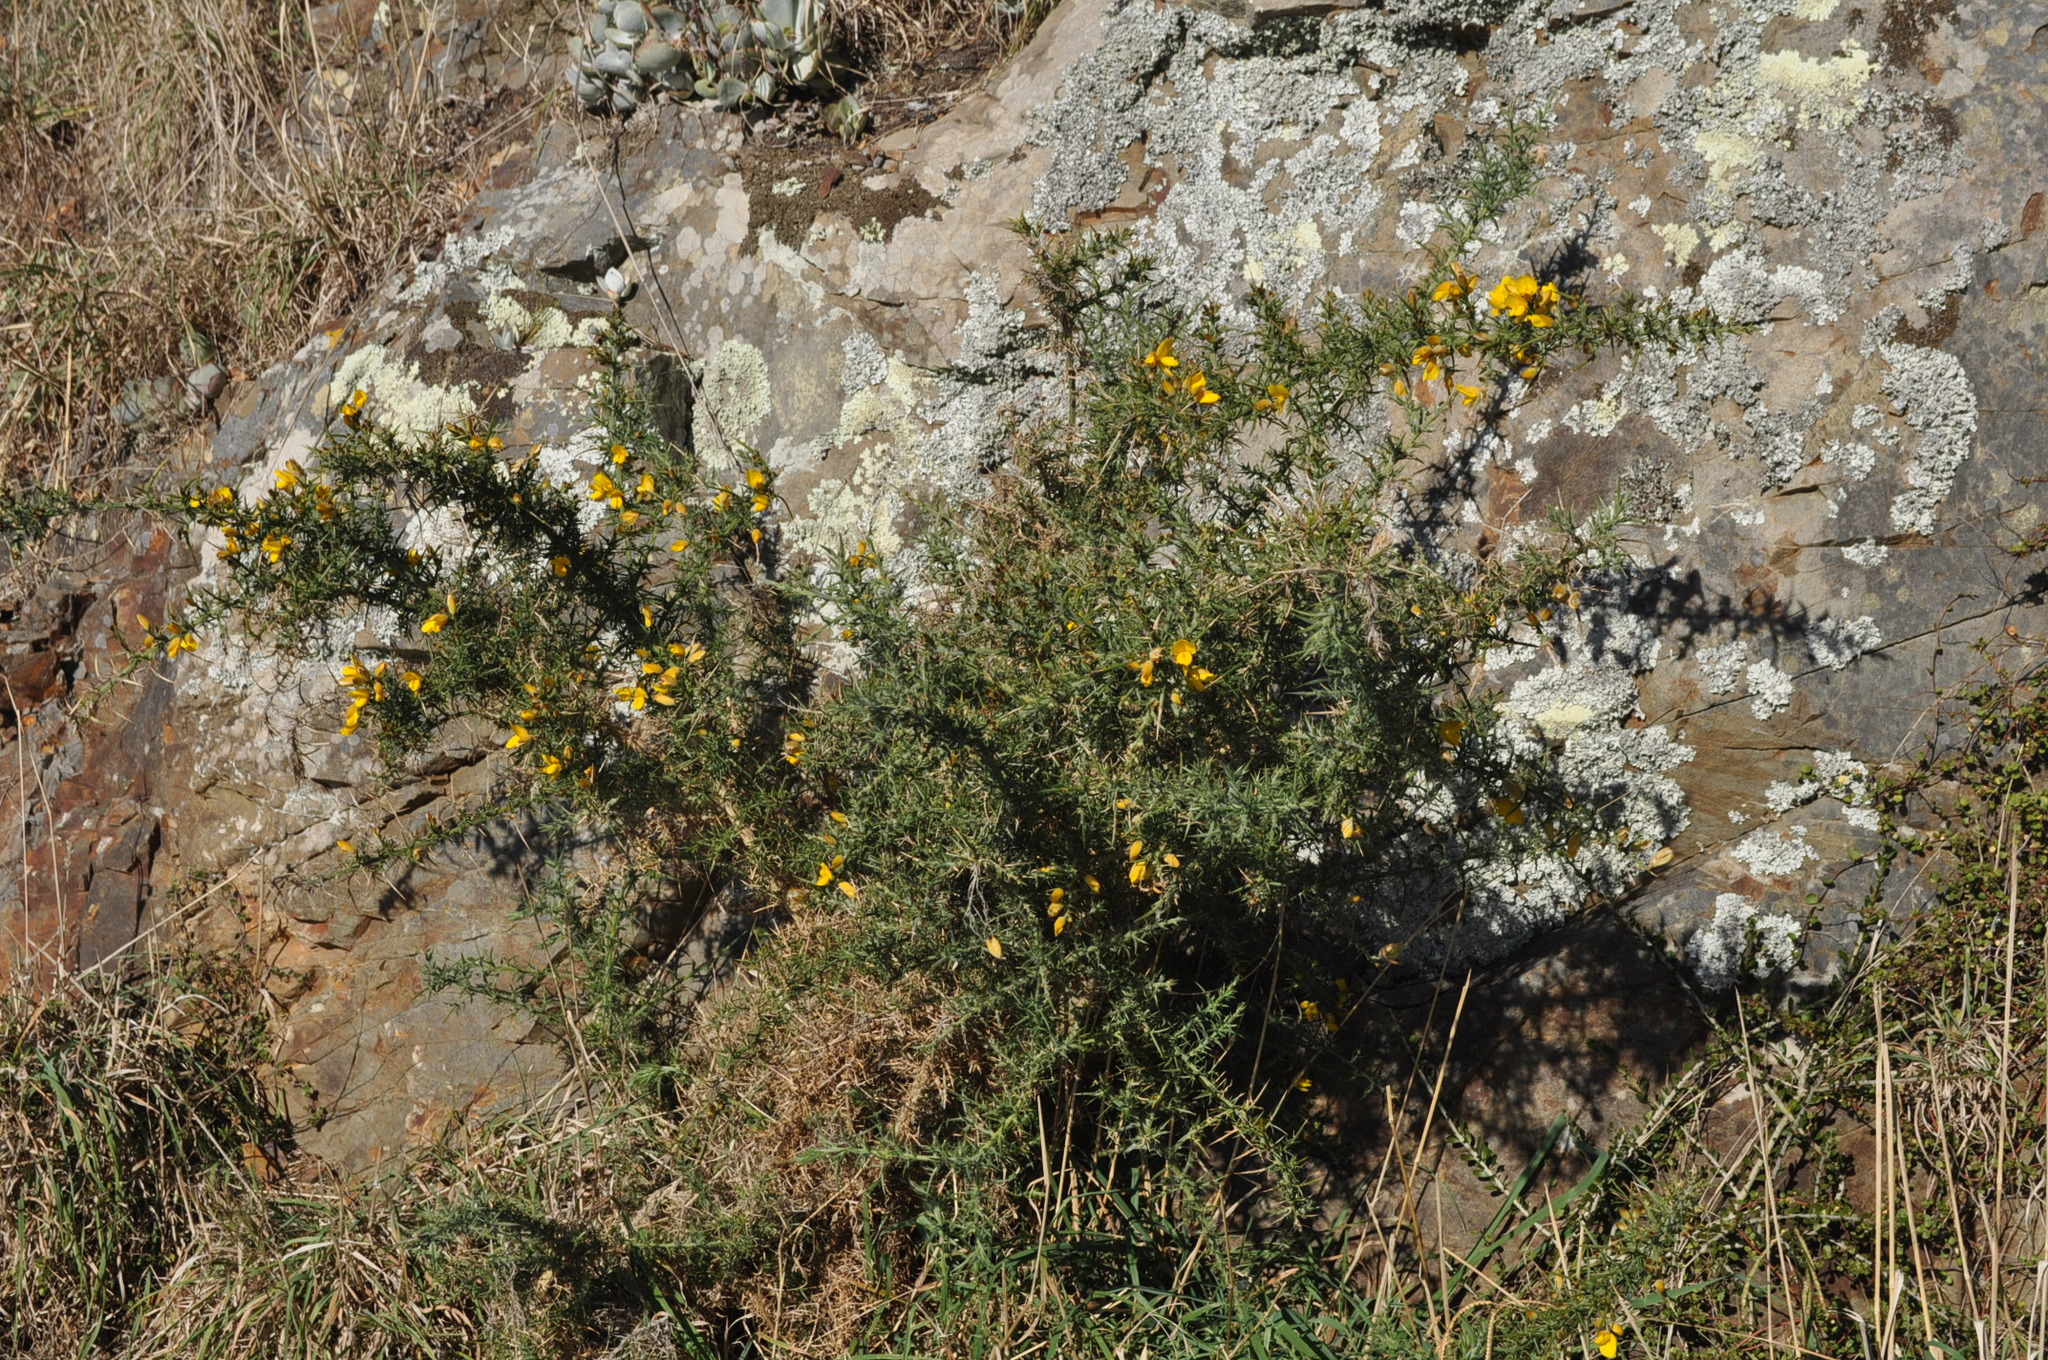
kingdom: Plantae
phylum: Tracheophyta
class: Magnoliopsida
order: Fabales
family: Fabaceae
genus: Ulex
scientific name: Ulex europaeus
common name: Common gorse
